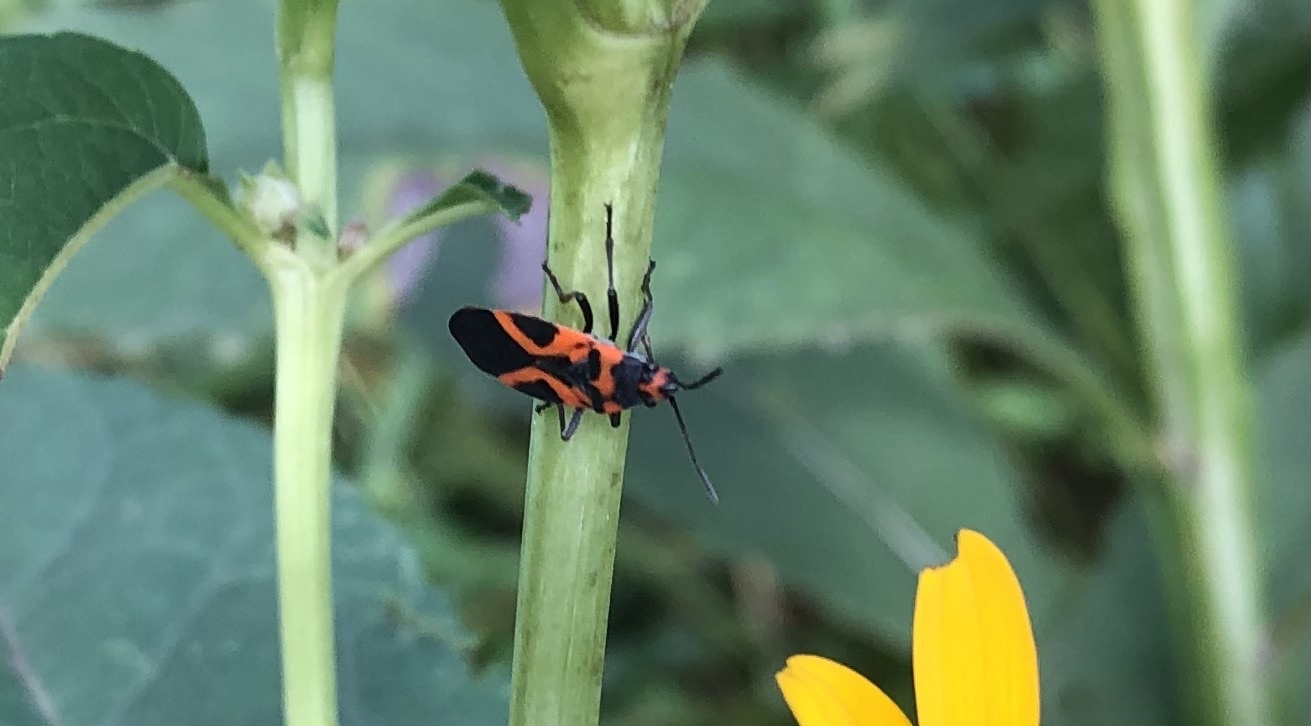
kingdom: Animalia
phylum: Arthropoda
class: Insecta
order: Hemiptera
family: Lygaeidae
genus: Lygaeus
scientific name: Lygaeus turcicus
